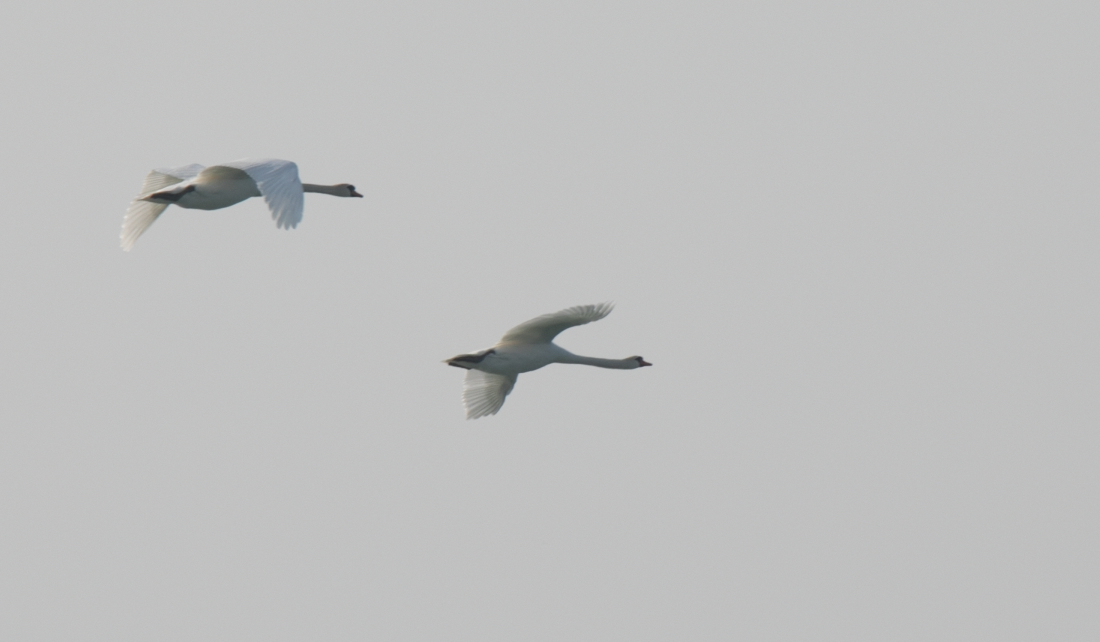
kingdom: Animalia
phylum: Chordata
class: Aves
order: Anseriformes
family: Anatidae
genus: Cygnus
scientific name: Cygnus olor
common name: Mute swan
